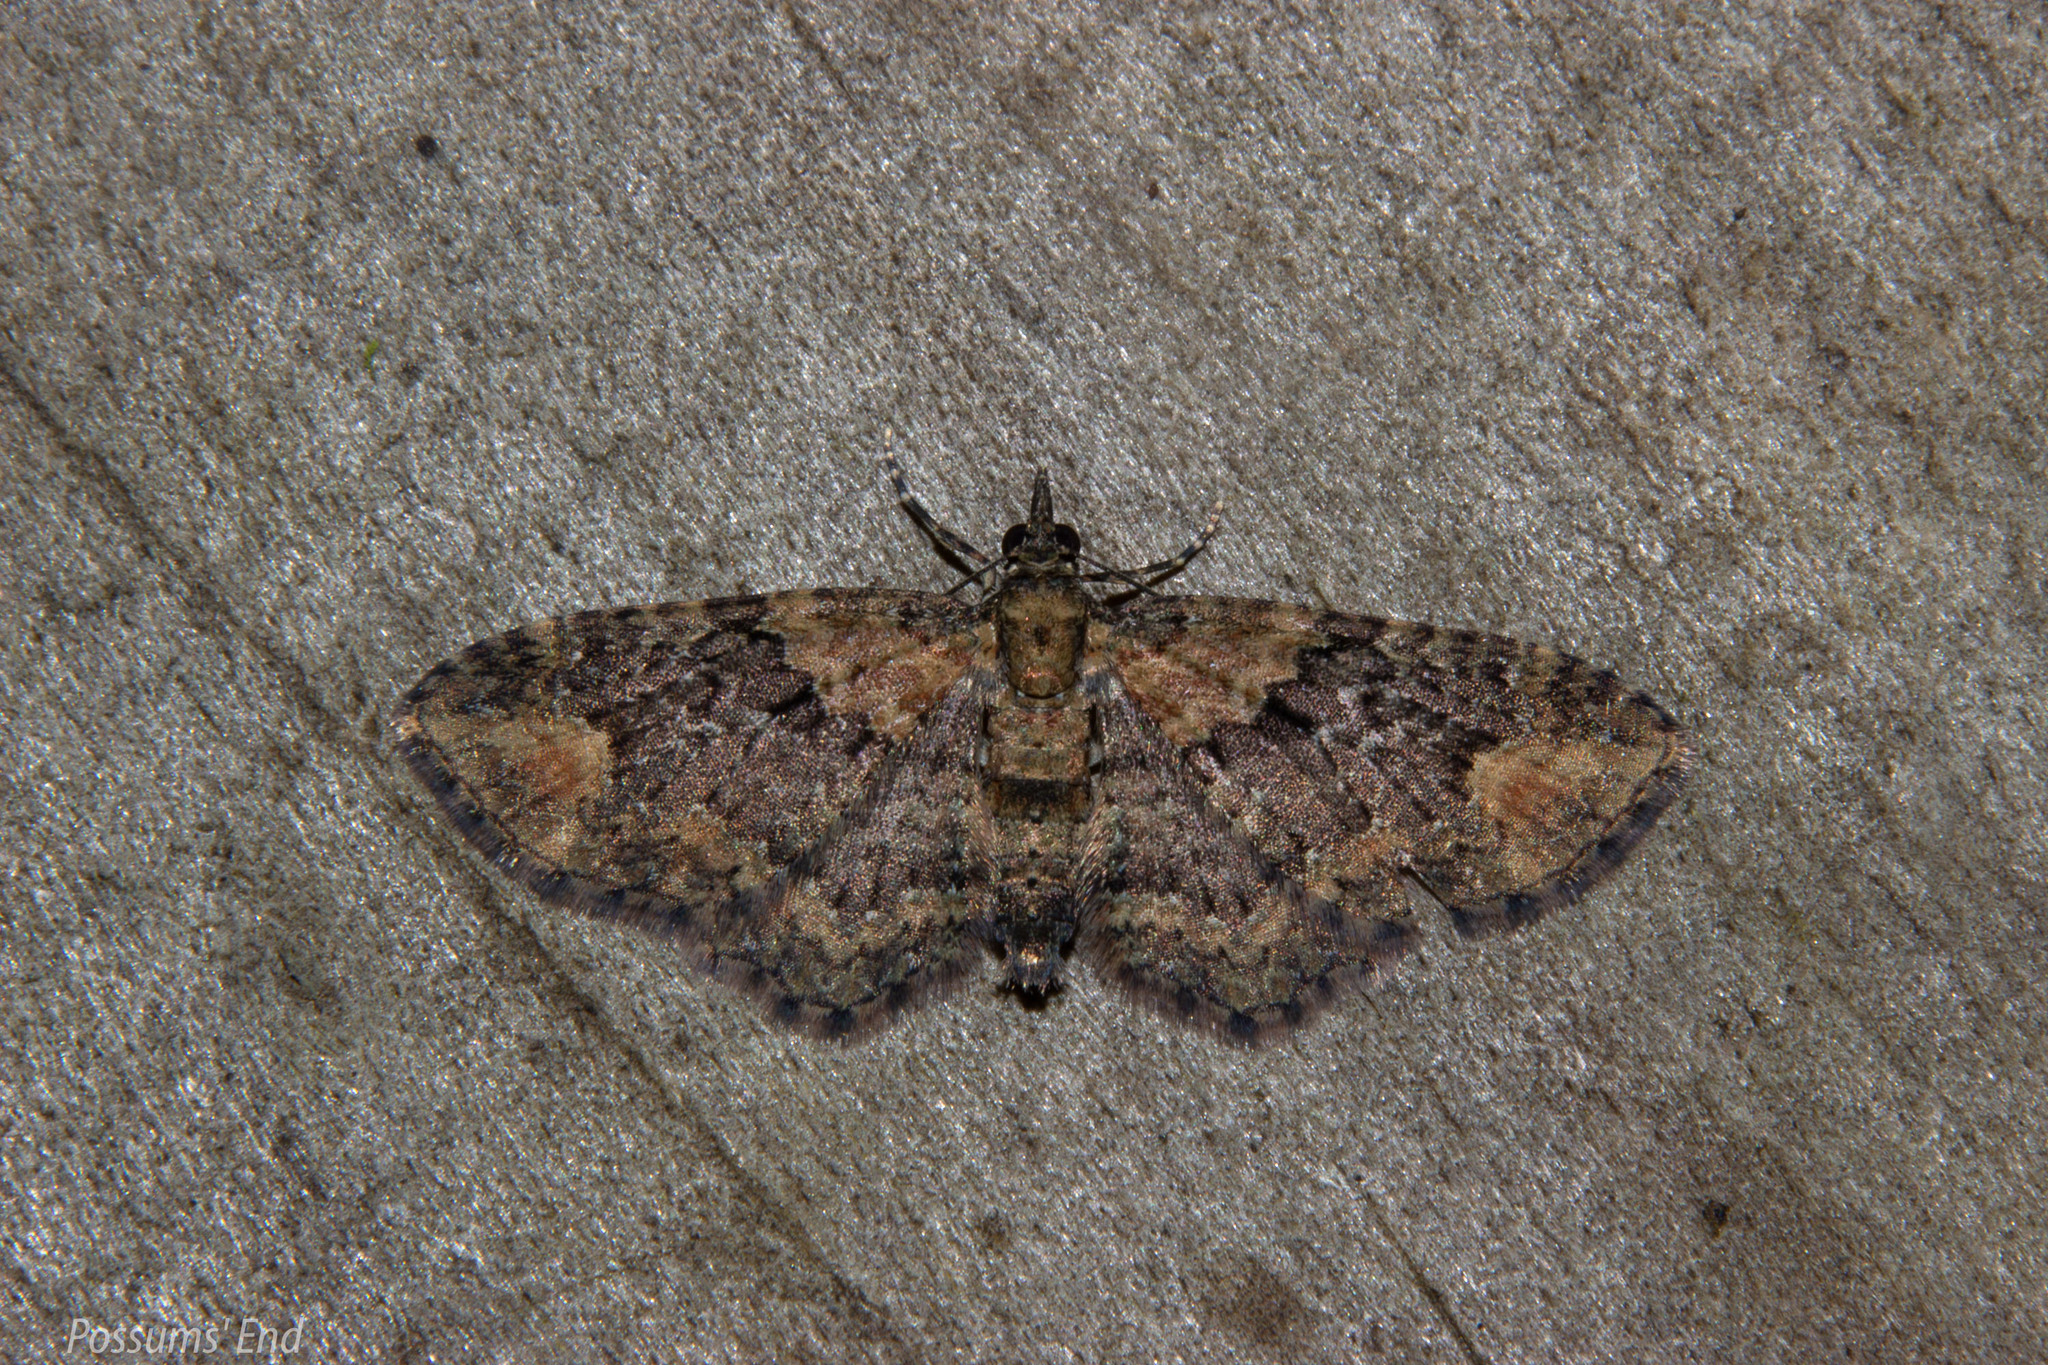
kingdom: Animalia
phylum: Arthropoda
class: Insecta
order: Lepidoptera
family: Geometridae
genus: Pasiphilodes
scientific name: Pasiphilodes testulata
